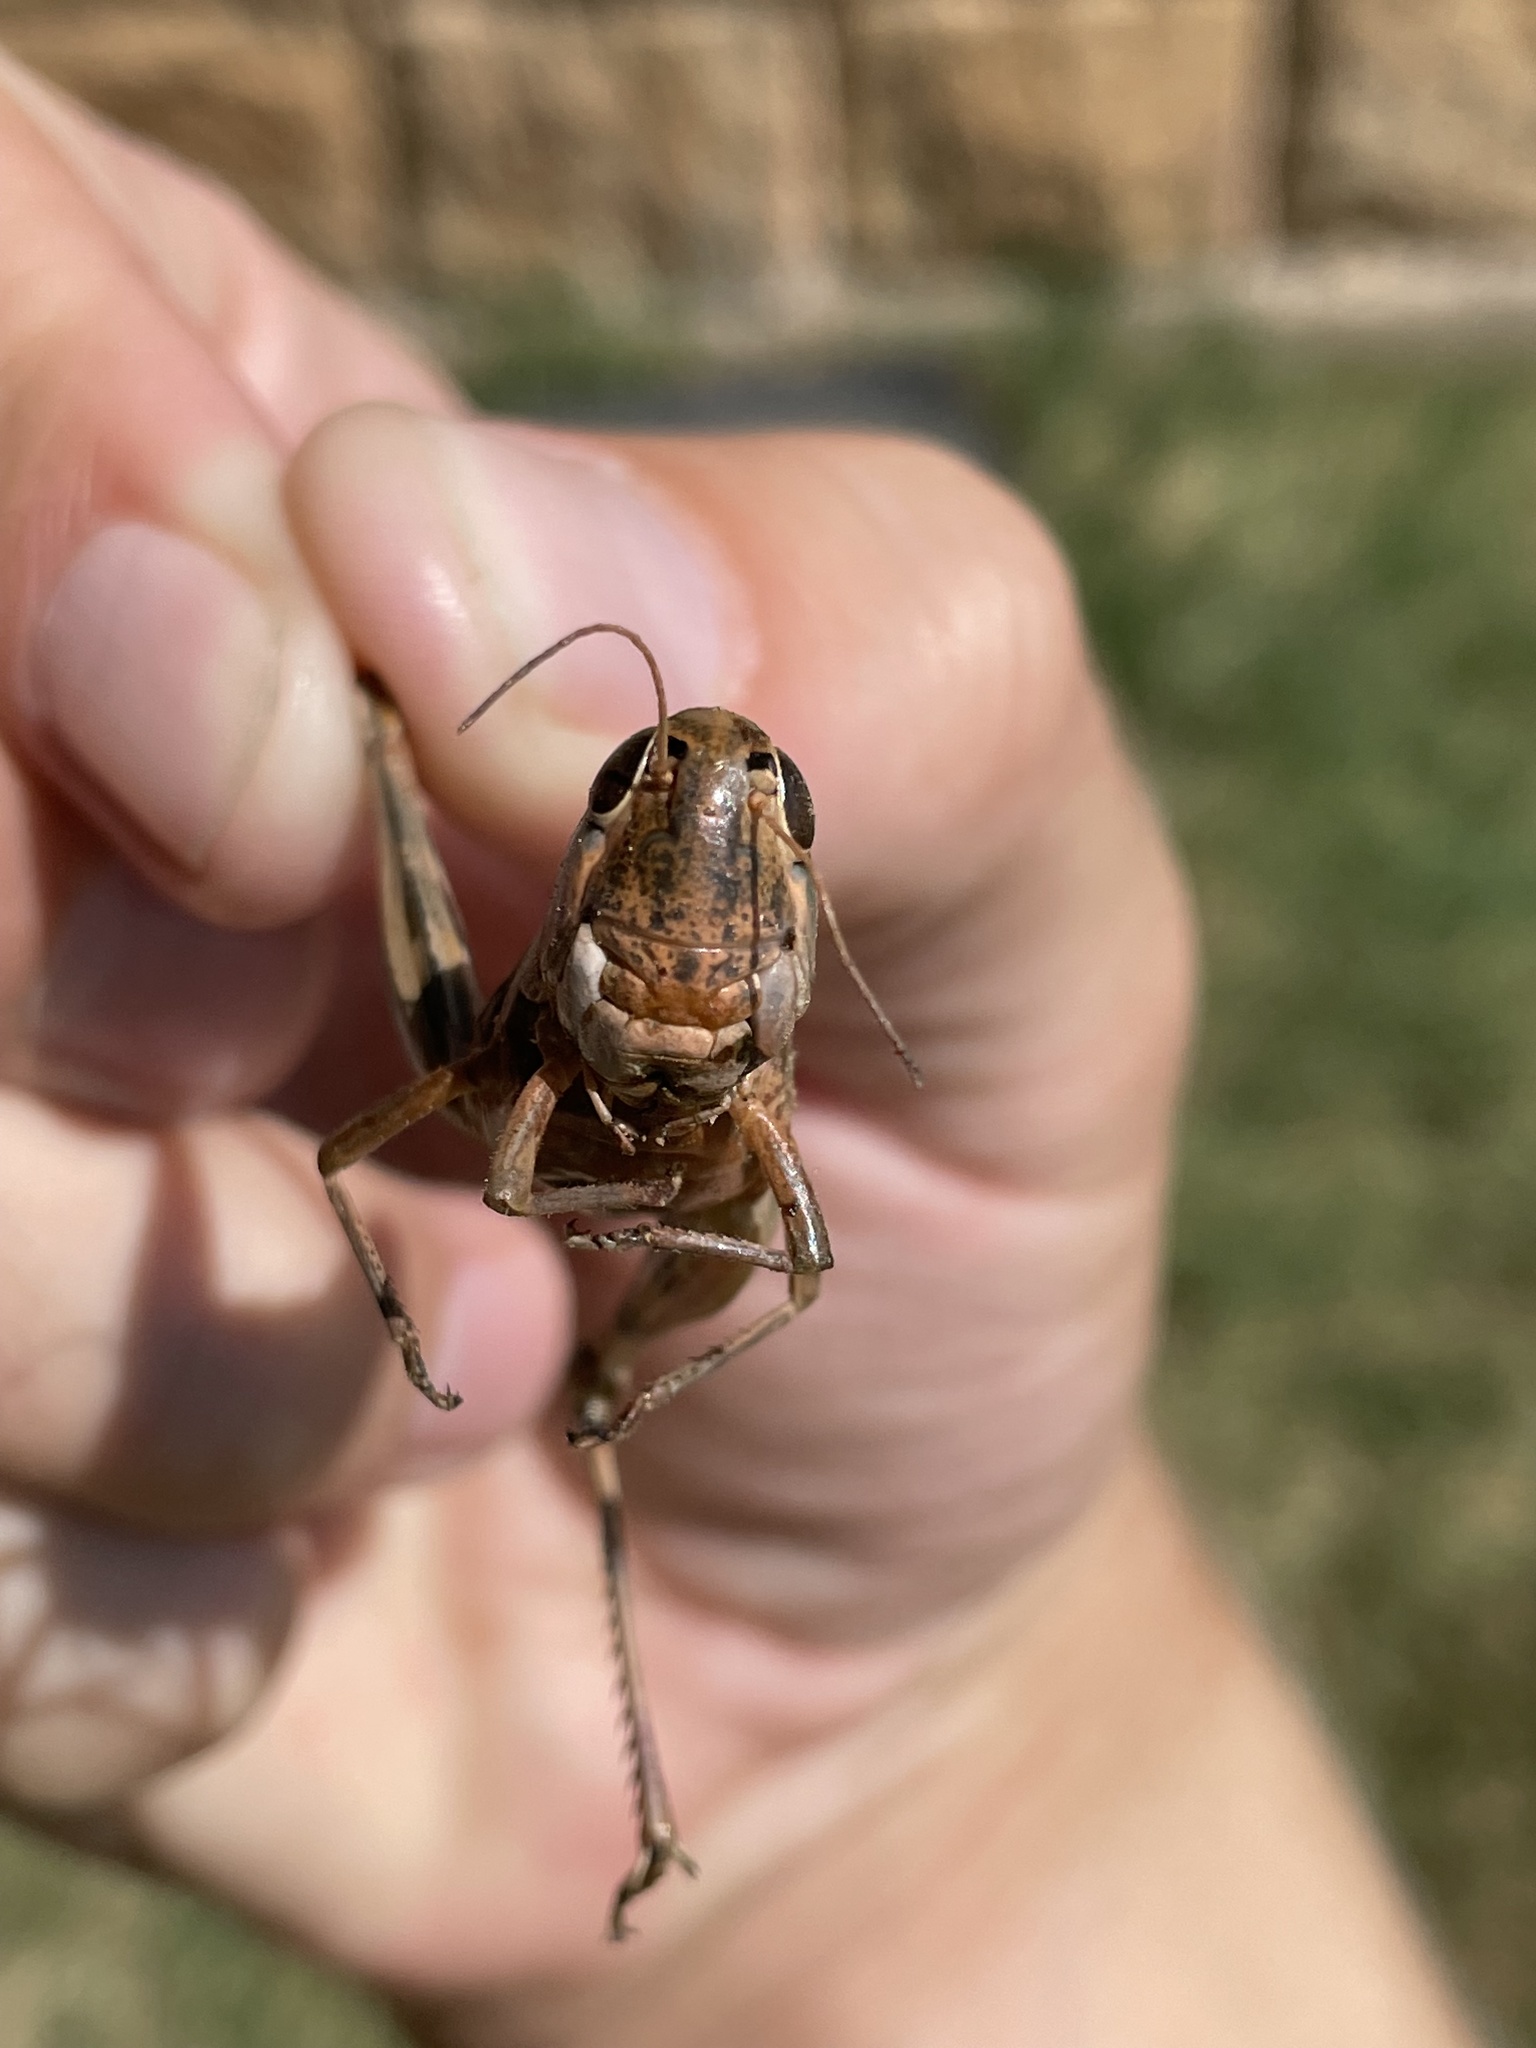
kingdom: Animalia
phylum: Arthropoda
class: Insecta
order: Orthoptera
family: Acrididae
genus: Boopedon
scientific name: Boopedon gracile
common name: Graceful range grasshopper
